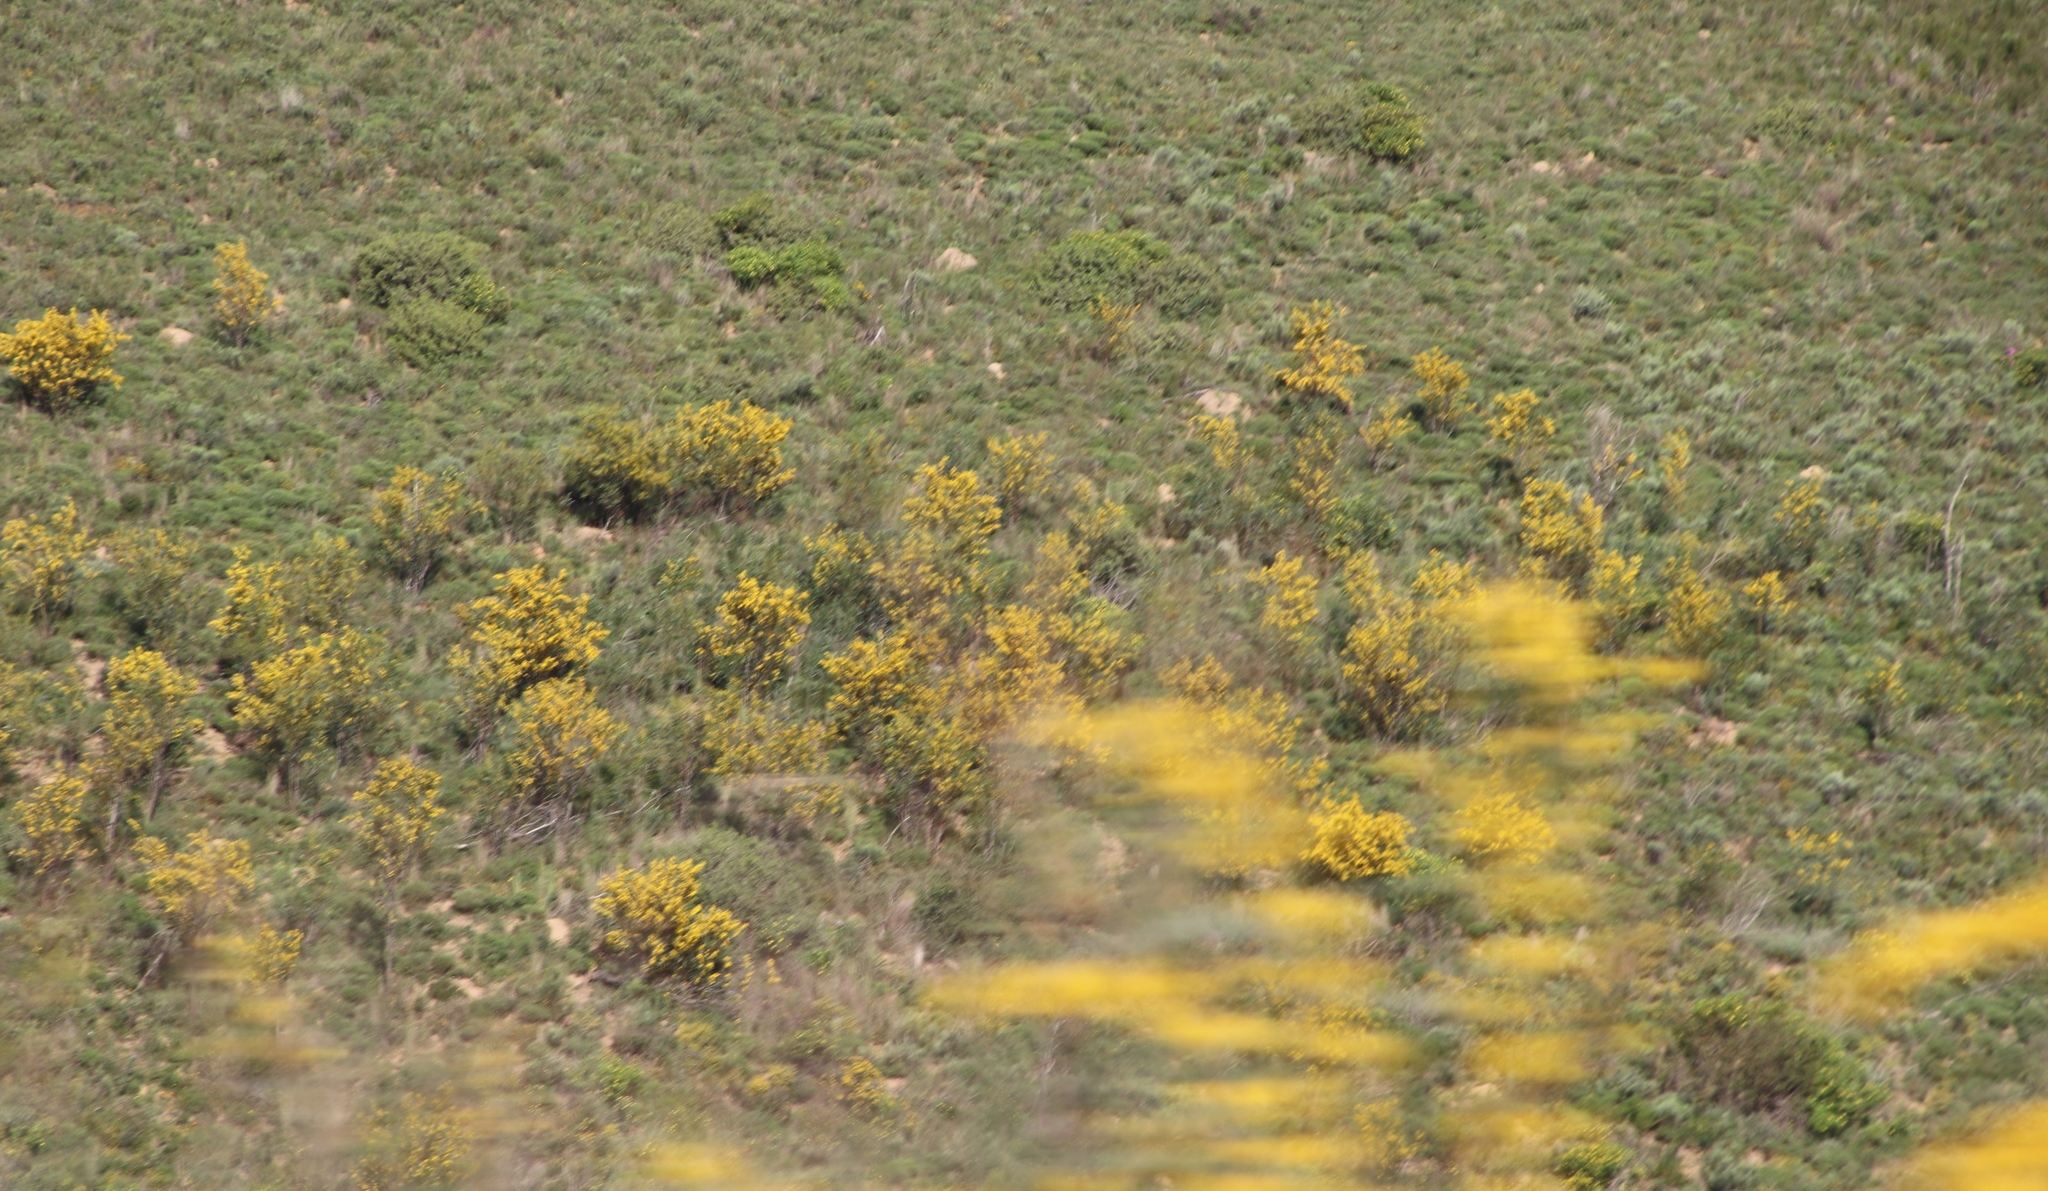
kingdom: Plantae
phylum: Tracheophyta
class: Magnoliopsida
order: Fabales
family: Fabaceae
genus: Acacia
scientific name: Acacia pycnantha
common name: Golden wattle
